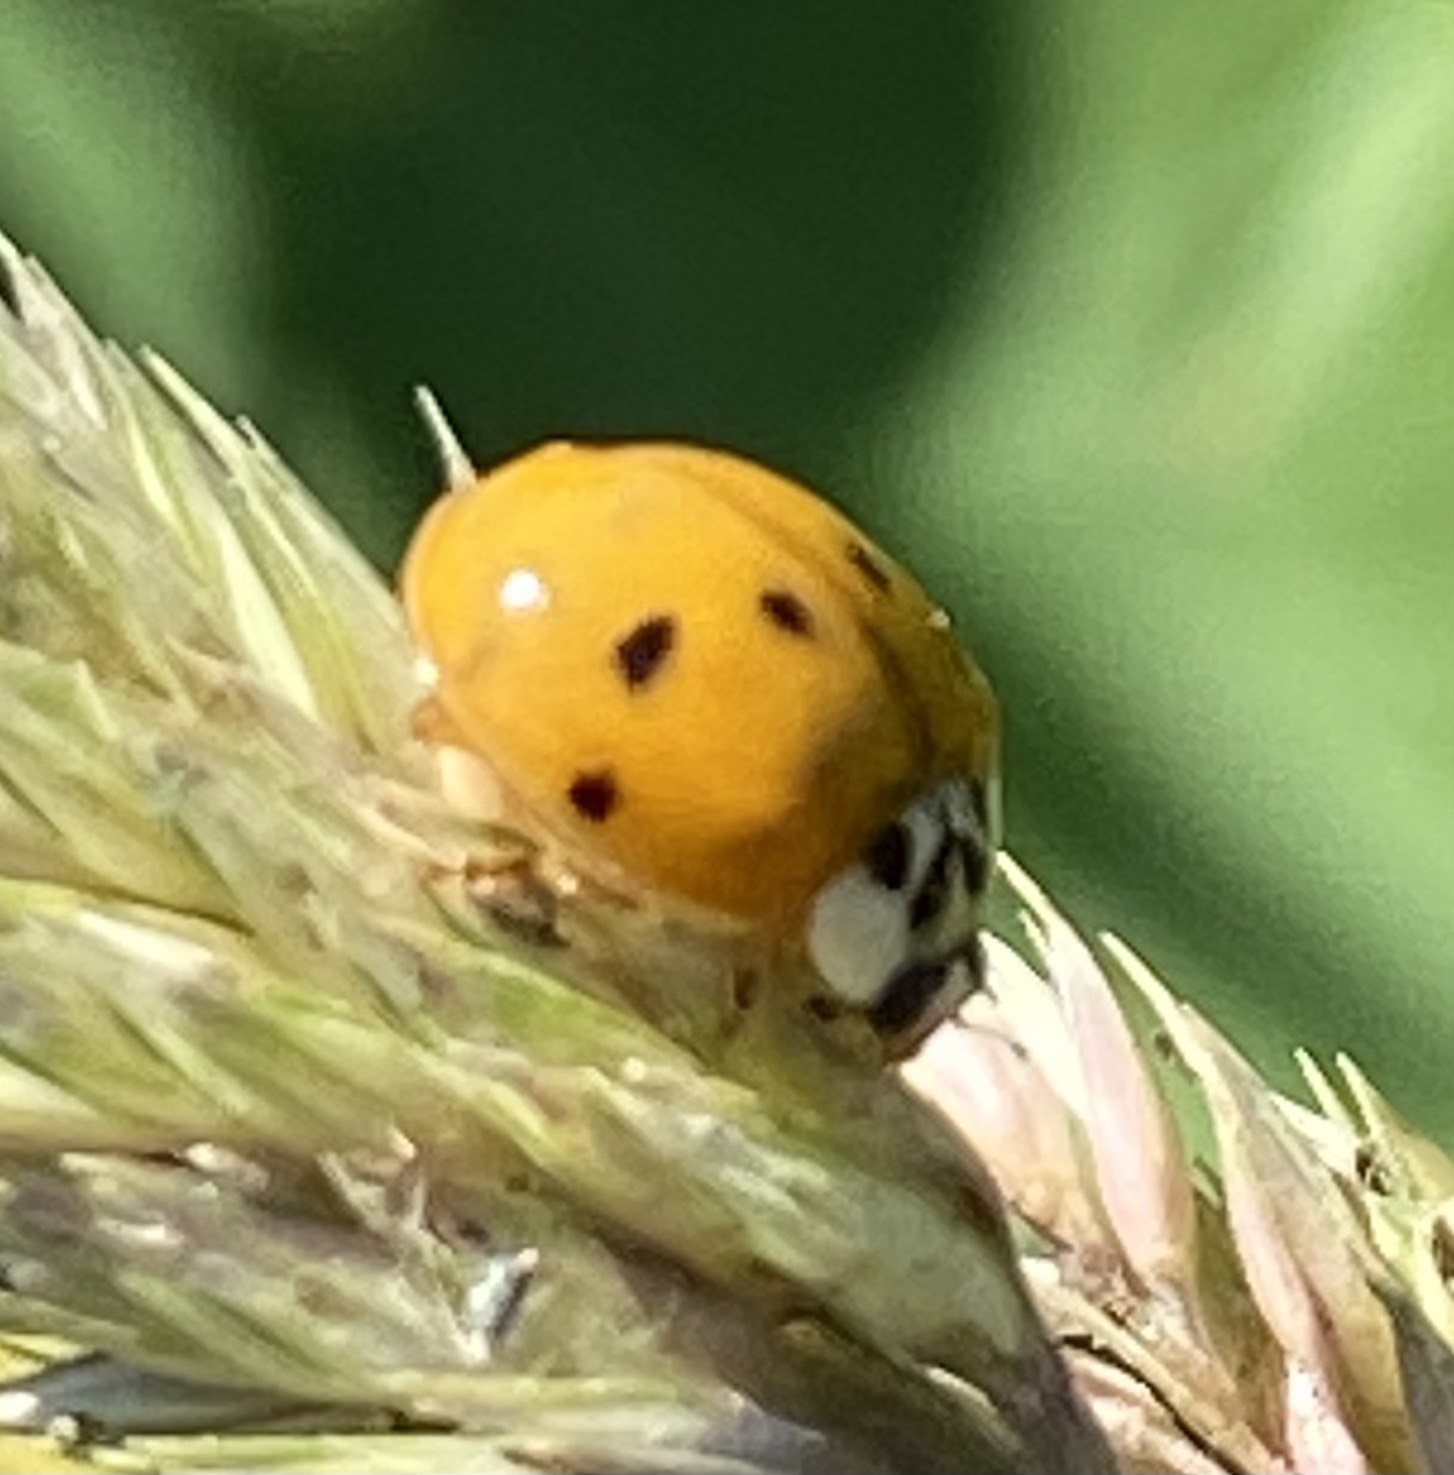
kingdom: Animalia
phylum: Arthropoda
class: Insecta
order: Coleoptera
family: Coccinellidae
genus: Harmonia
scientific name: Harmonia axyridis
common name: Harlequin ladybird
